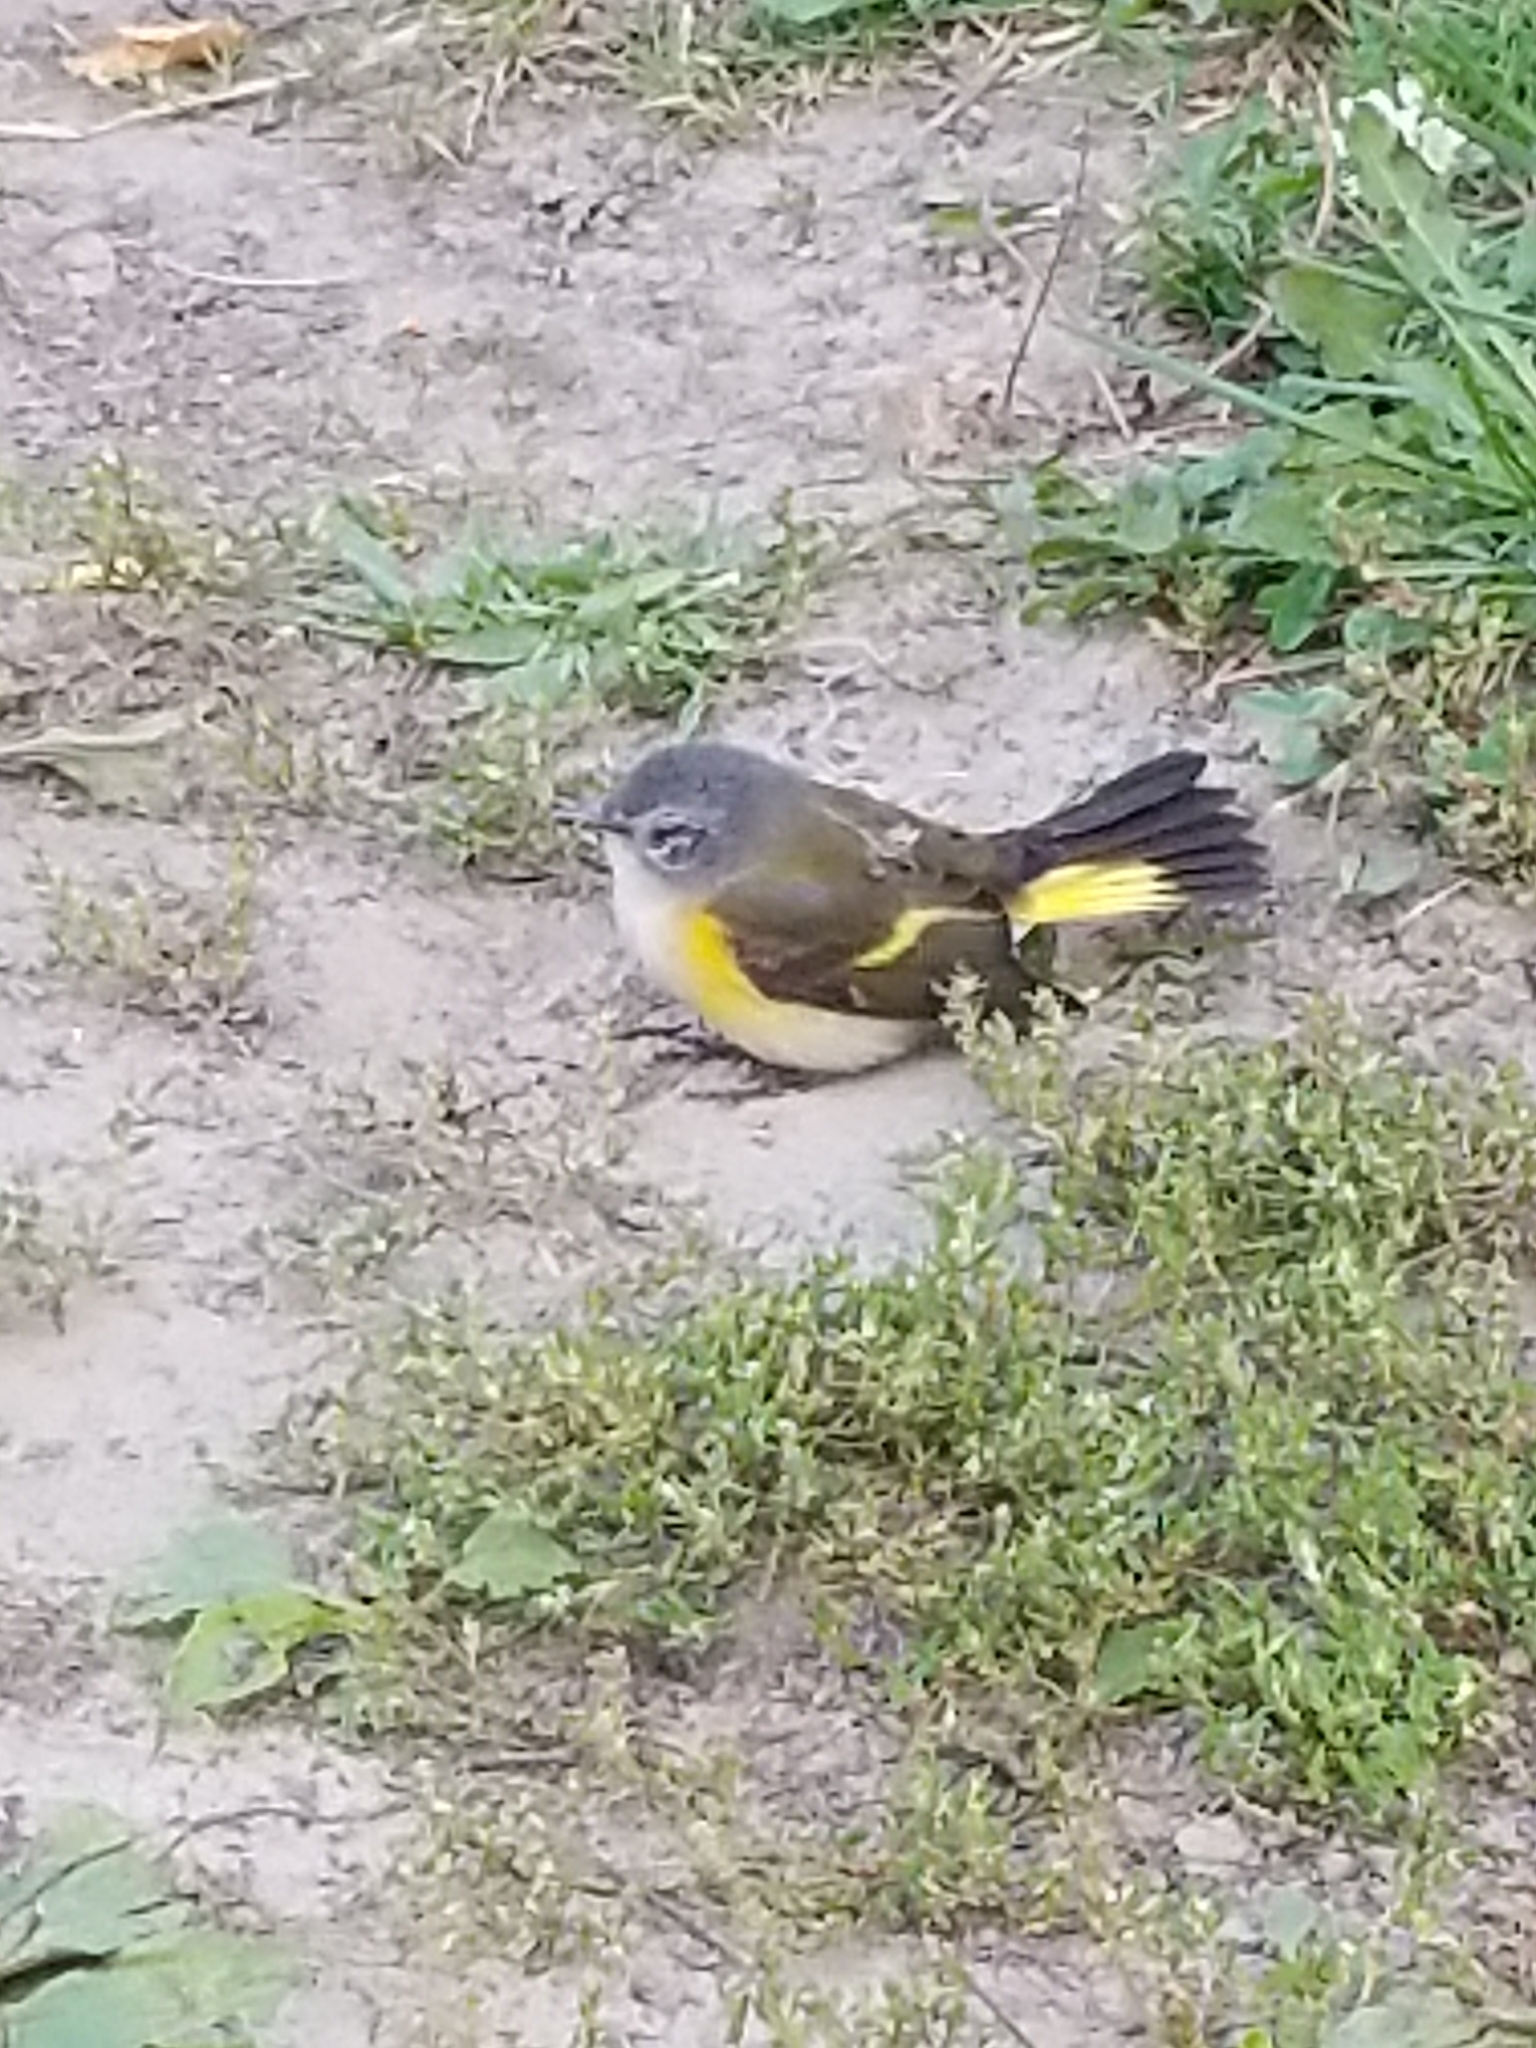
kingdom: Animalia
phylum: Chordata
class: Aves
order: Passeriformes
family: Parulidae
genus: Setophaga
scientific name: Setophaga ruticilla
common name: American redstart
